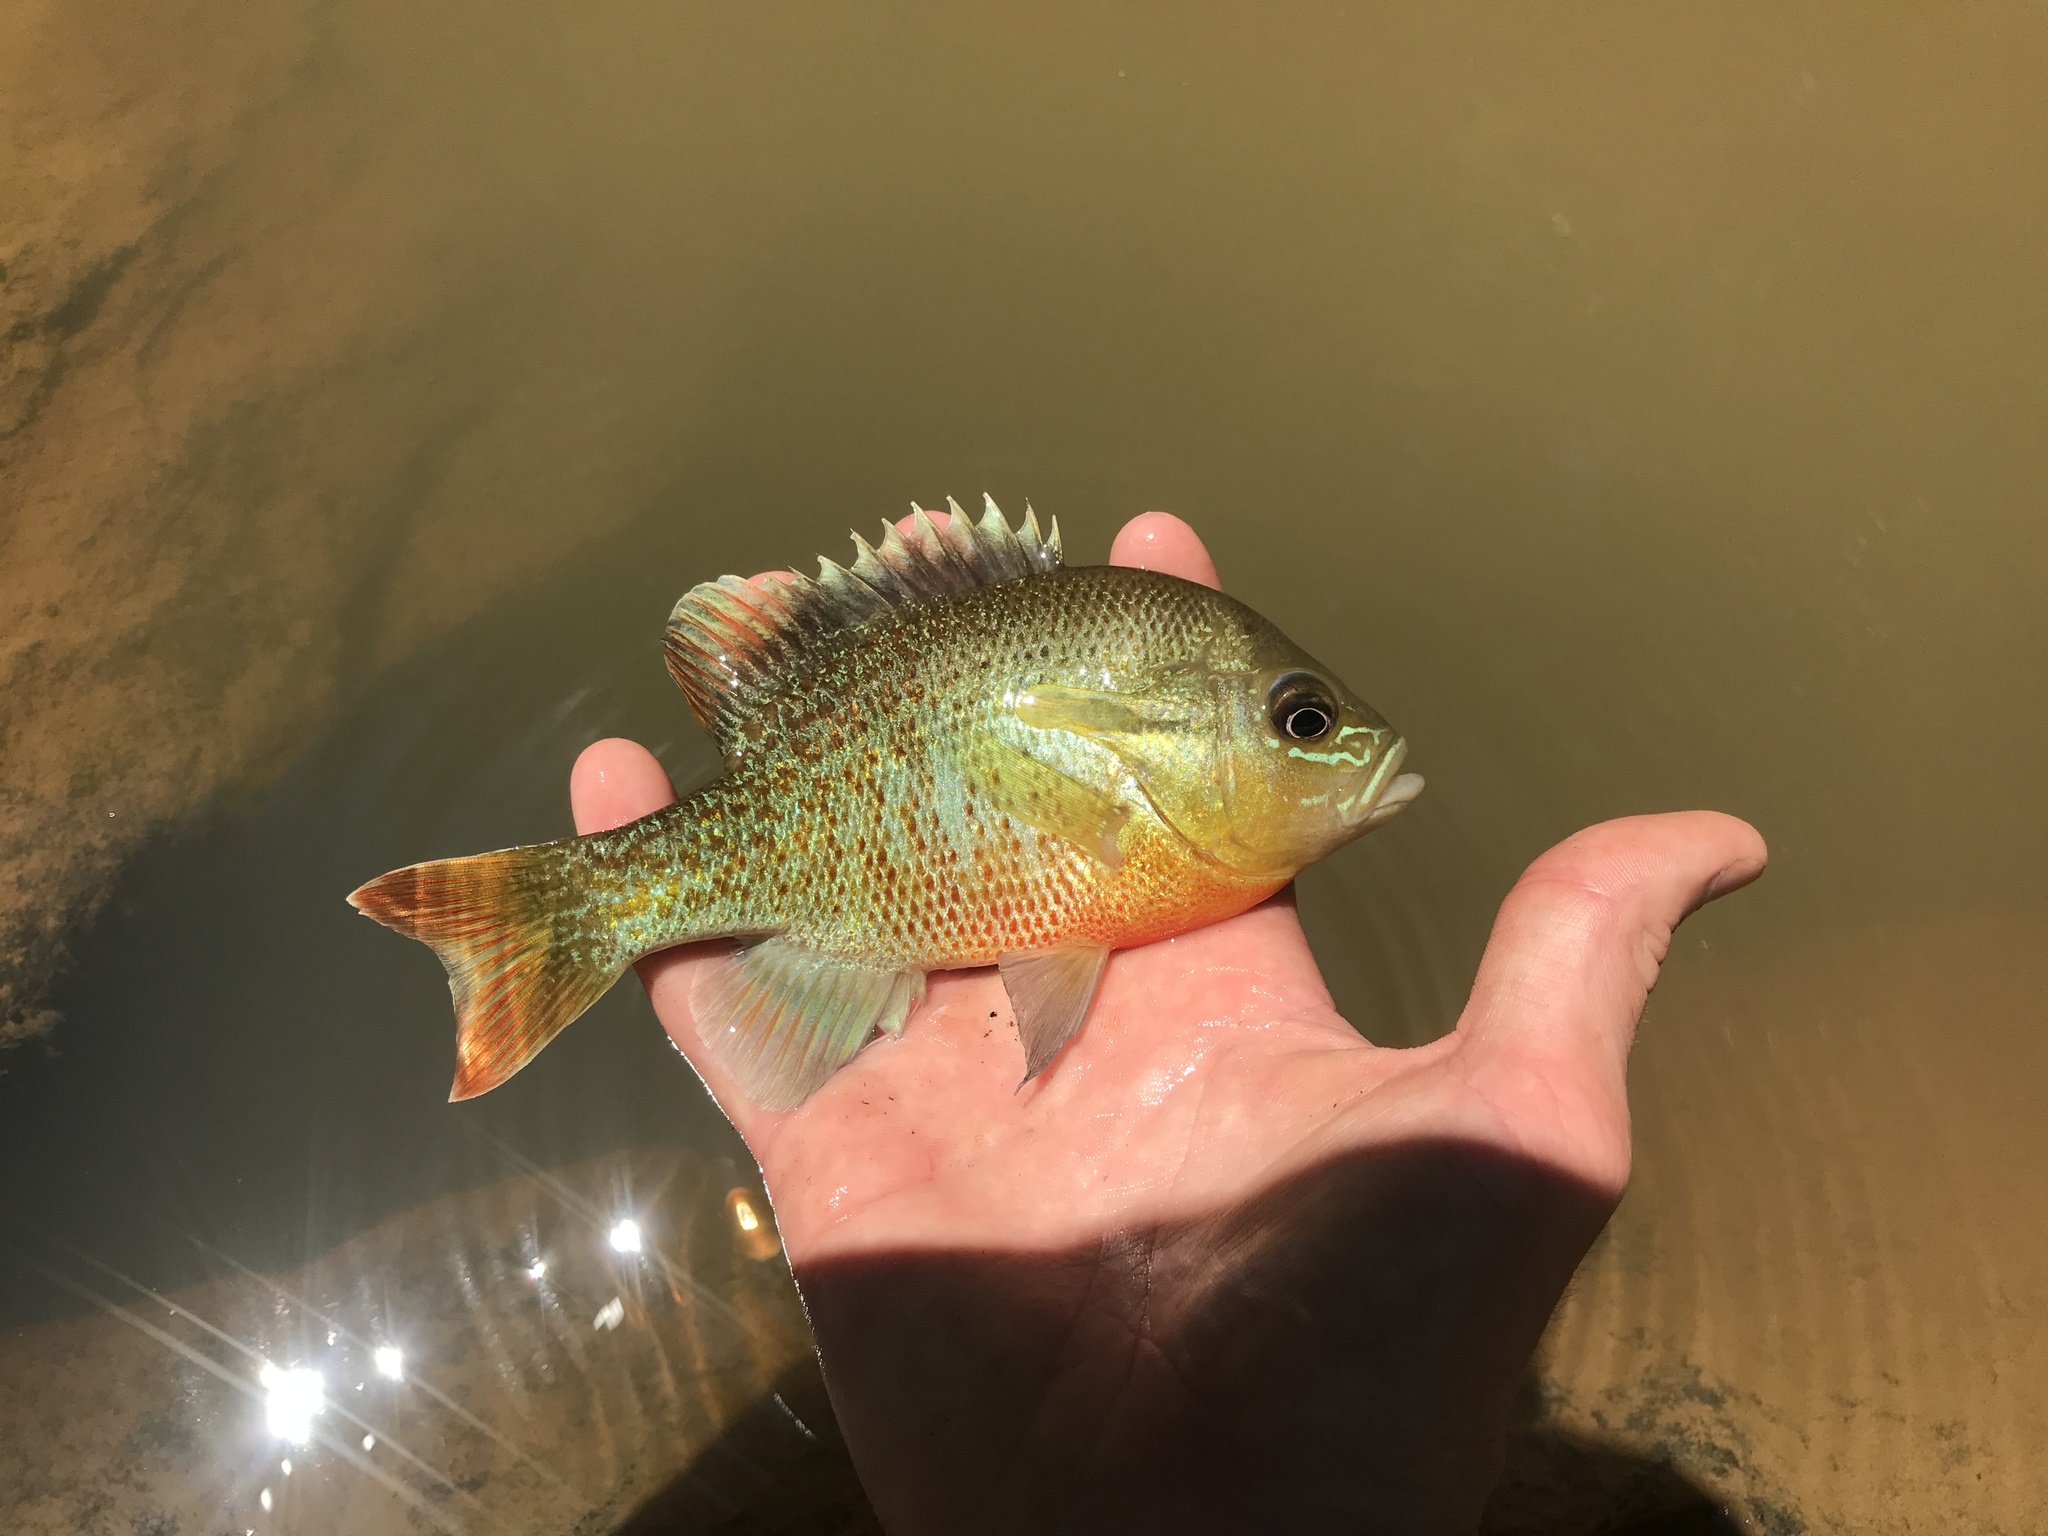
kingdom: Animalia
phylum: Chordata
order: Perciformes
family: Centrarchidae
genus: Lepomis
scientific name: Lepomis auritus
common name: Redbreast sunfish
